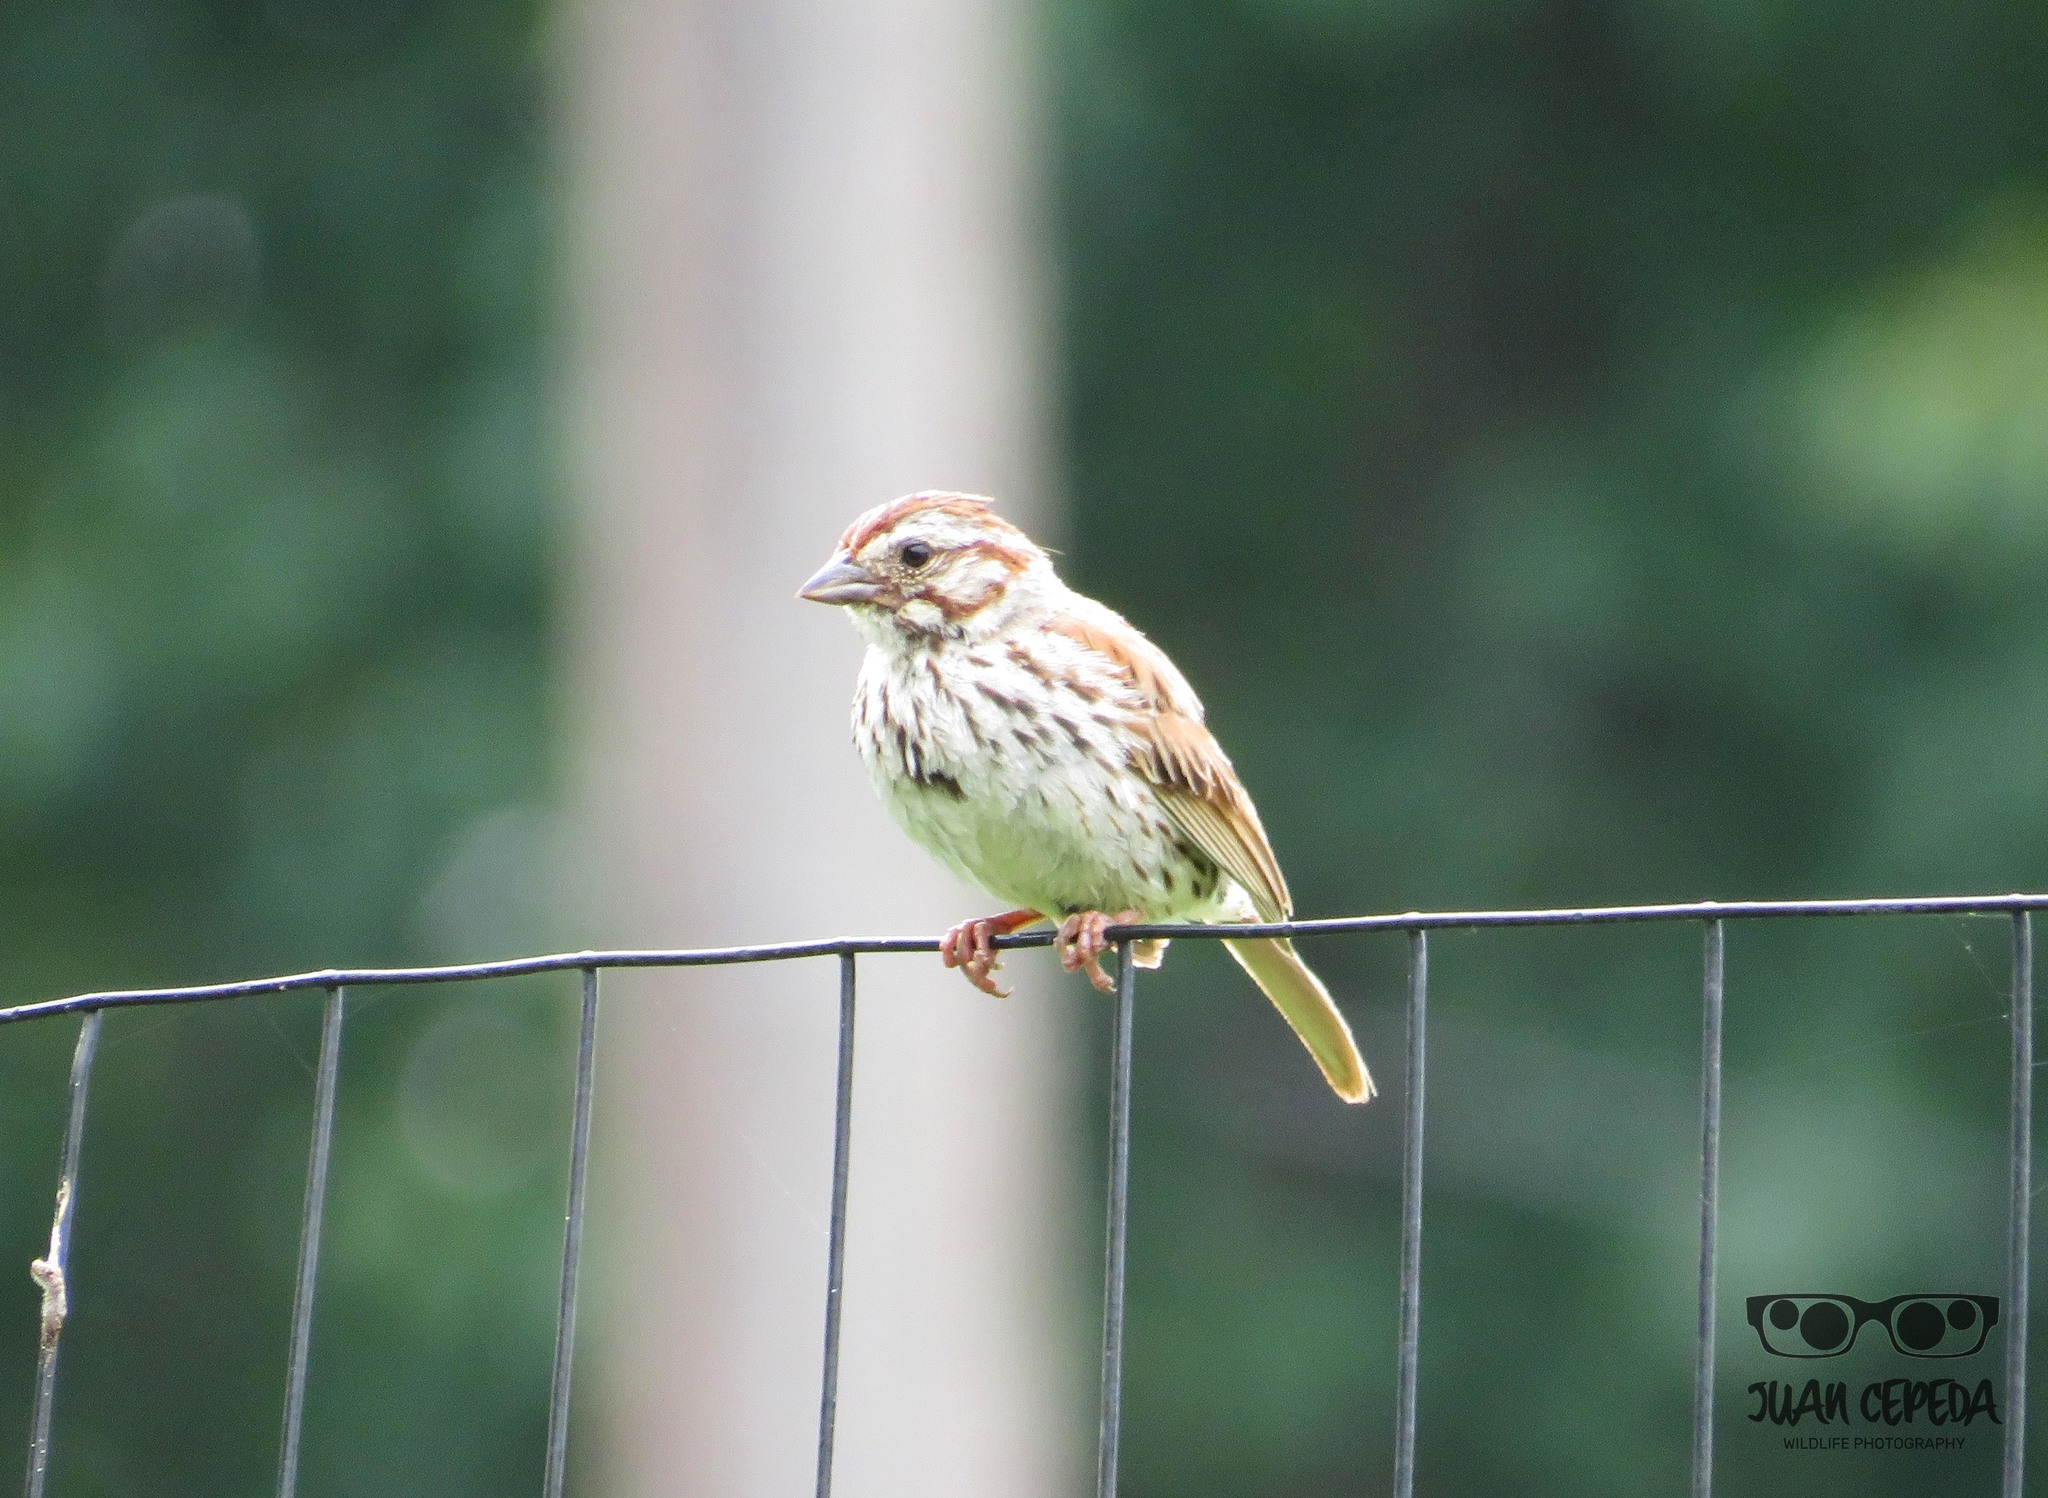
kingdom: Animalia
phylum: Chordata
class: Aves
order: Passeriformes
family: Passerellidae
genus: Melospiza
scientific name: Melospiza melodia
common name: Song sparrow
